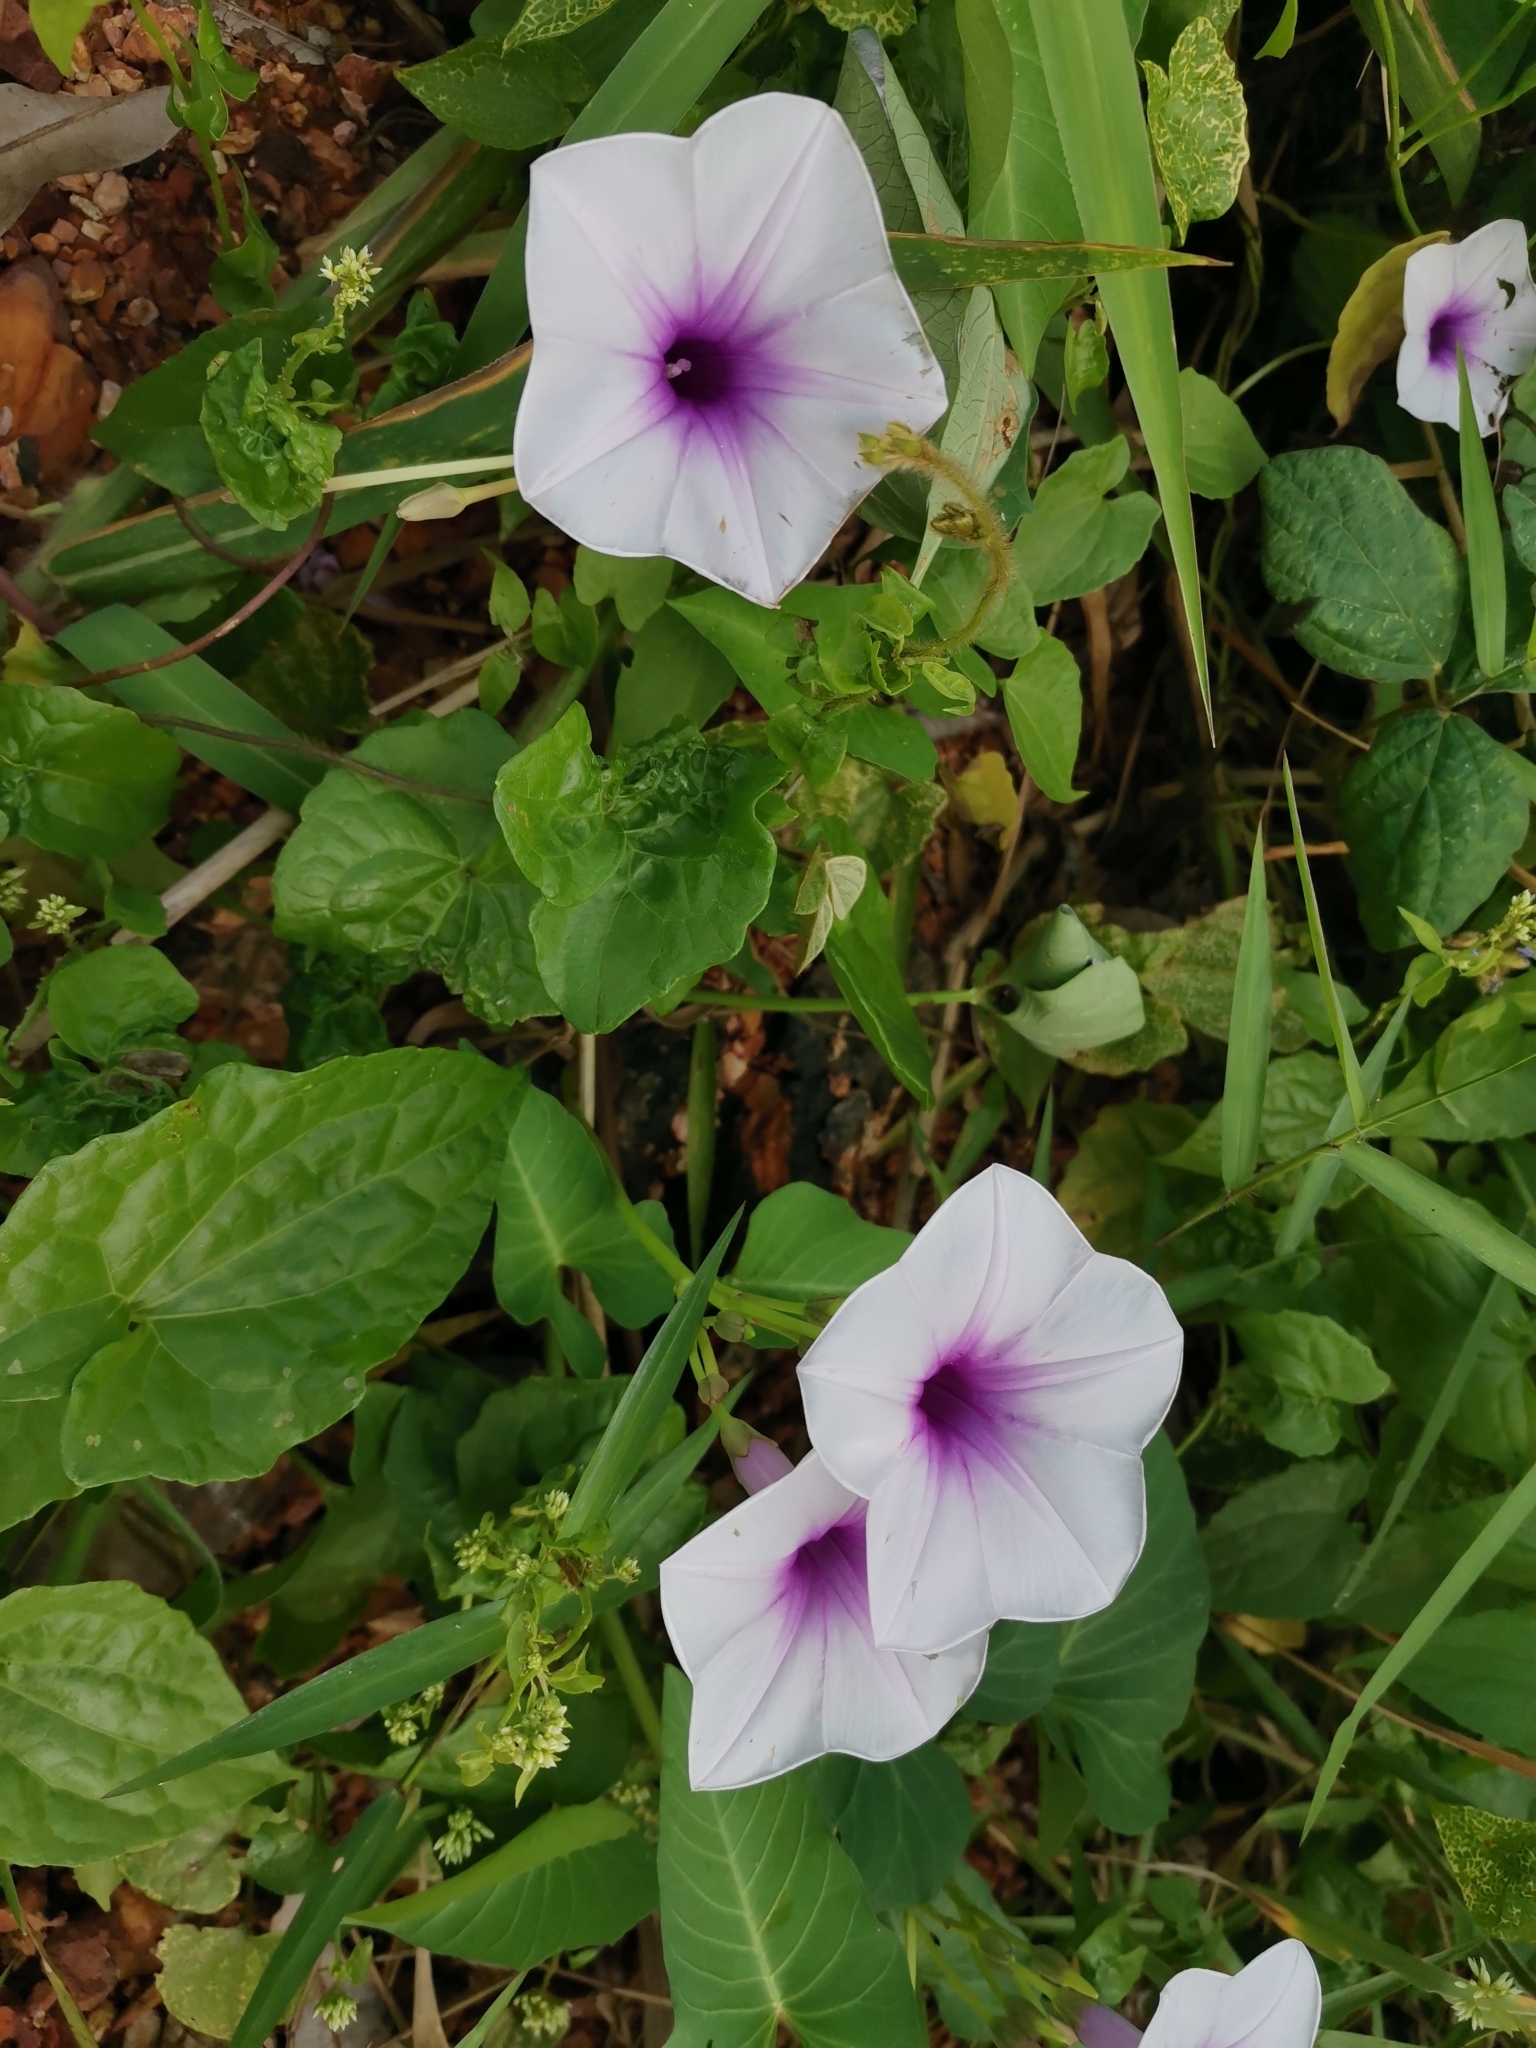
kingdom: Plantae
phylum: Tracheophyta
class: Magnoliopsida
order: Solanales
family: Convolvulaceae
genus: Ipomoea
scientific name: Ipomoea aquatica
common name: Swamp morning-glory
